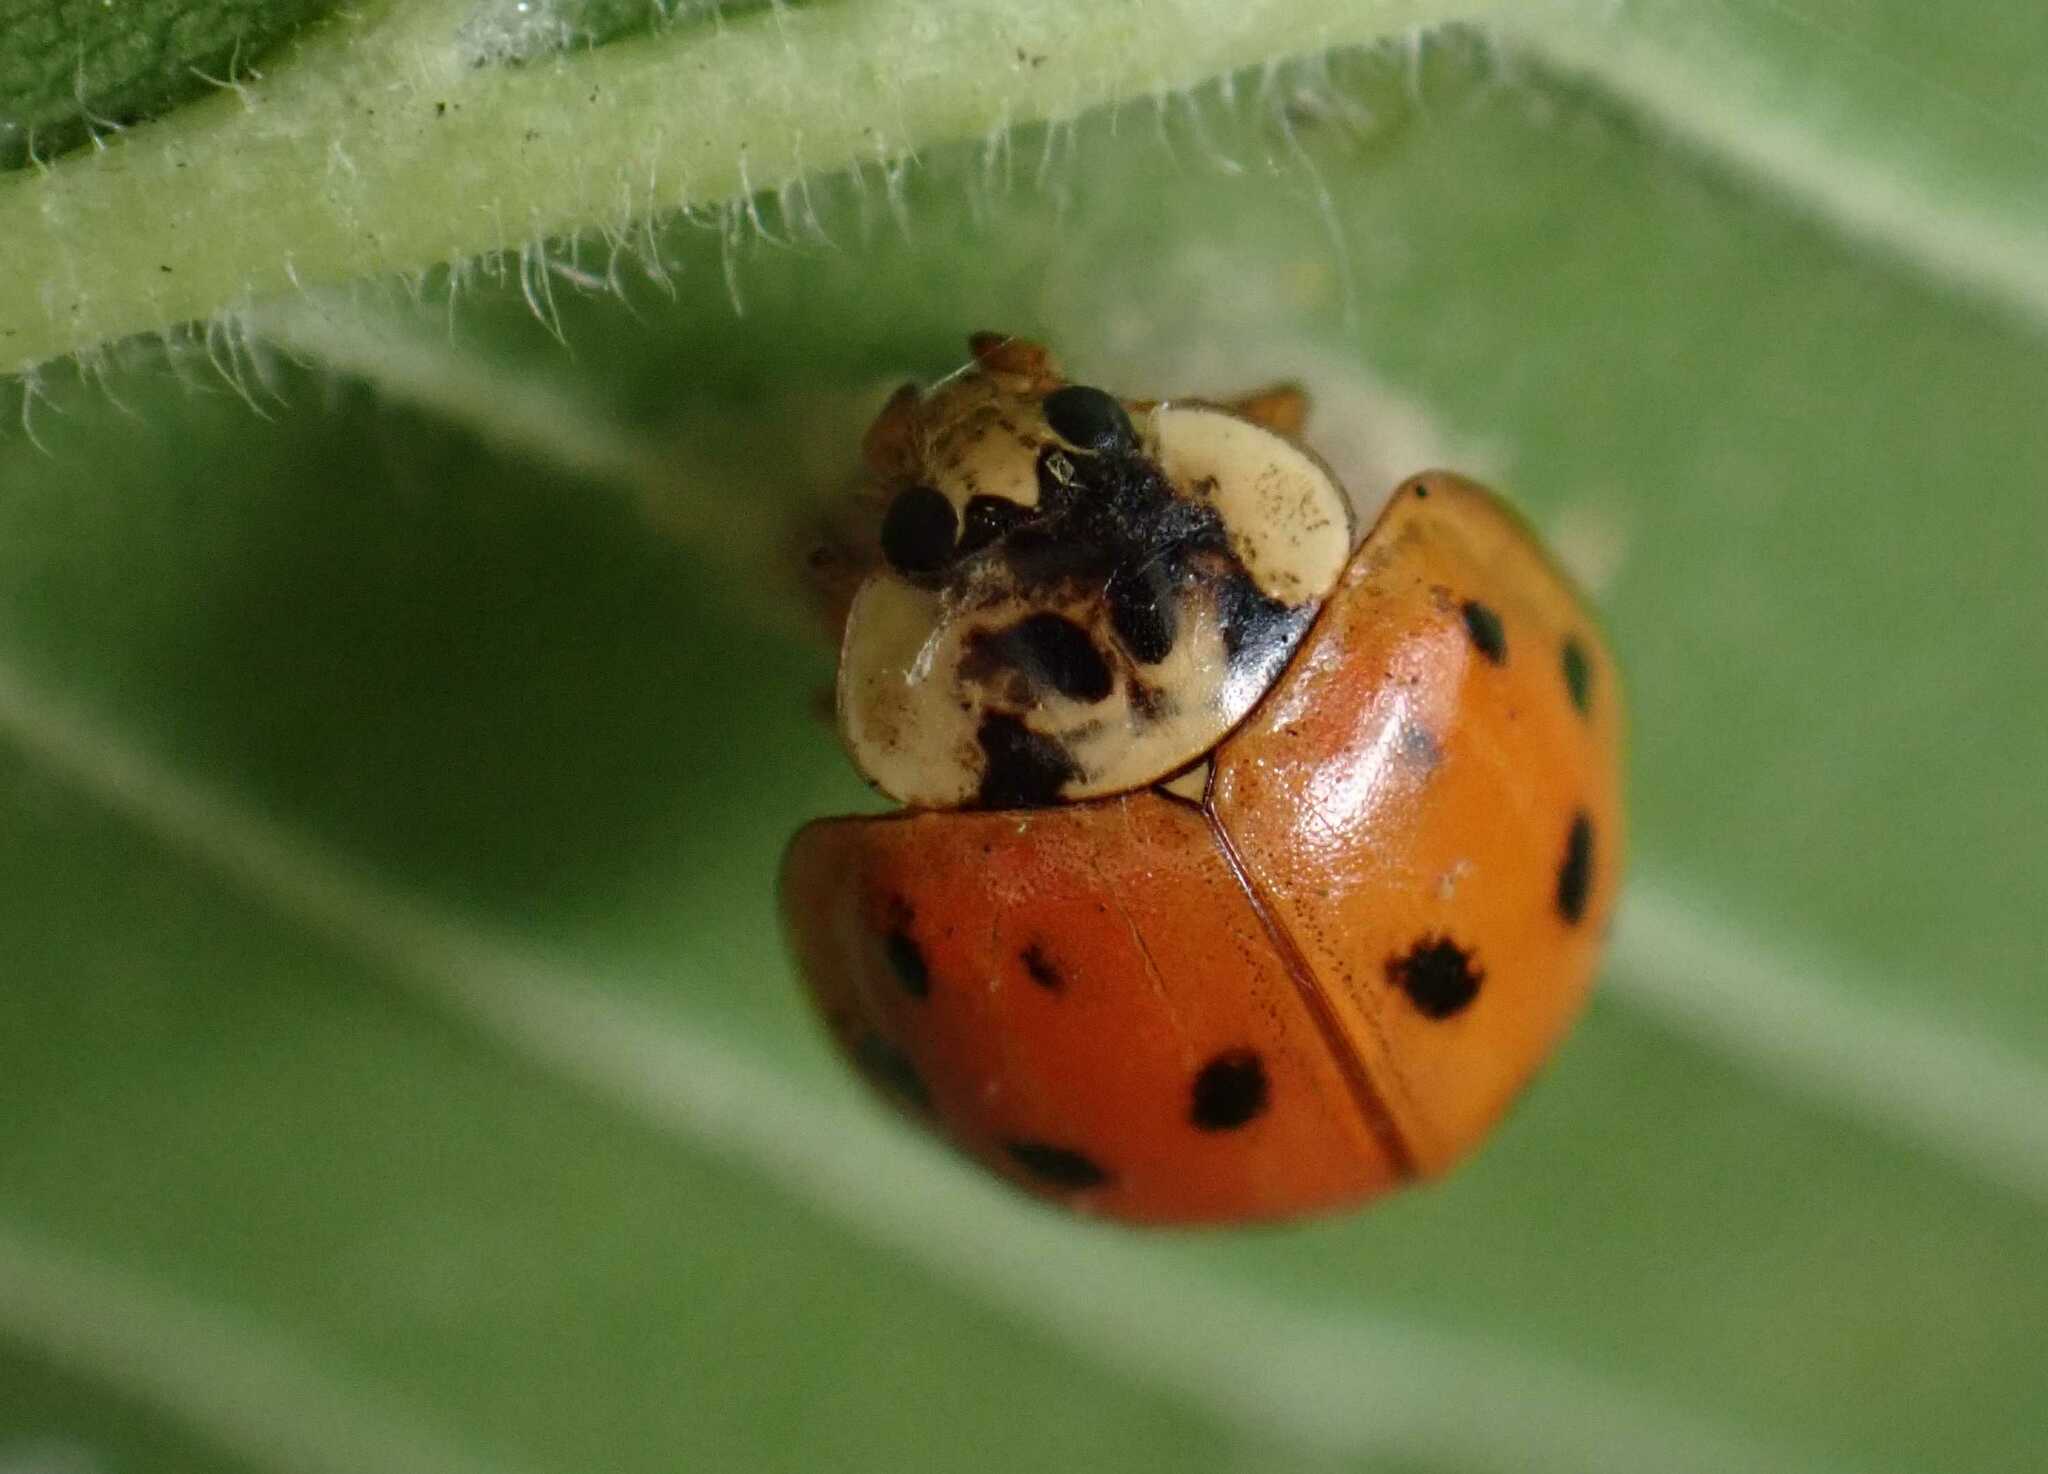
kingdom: Animalia
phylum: Arthropoda
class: Insecta
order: Coleoptera
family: Coccinellidae
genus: Harmonia
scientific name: Harmonia axyridis
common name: Harlequin ladybird
